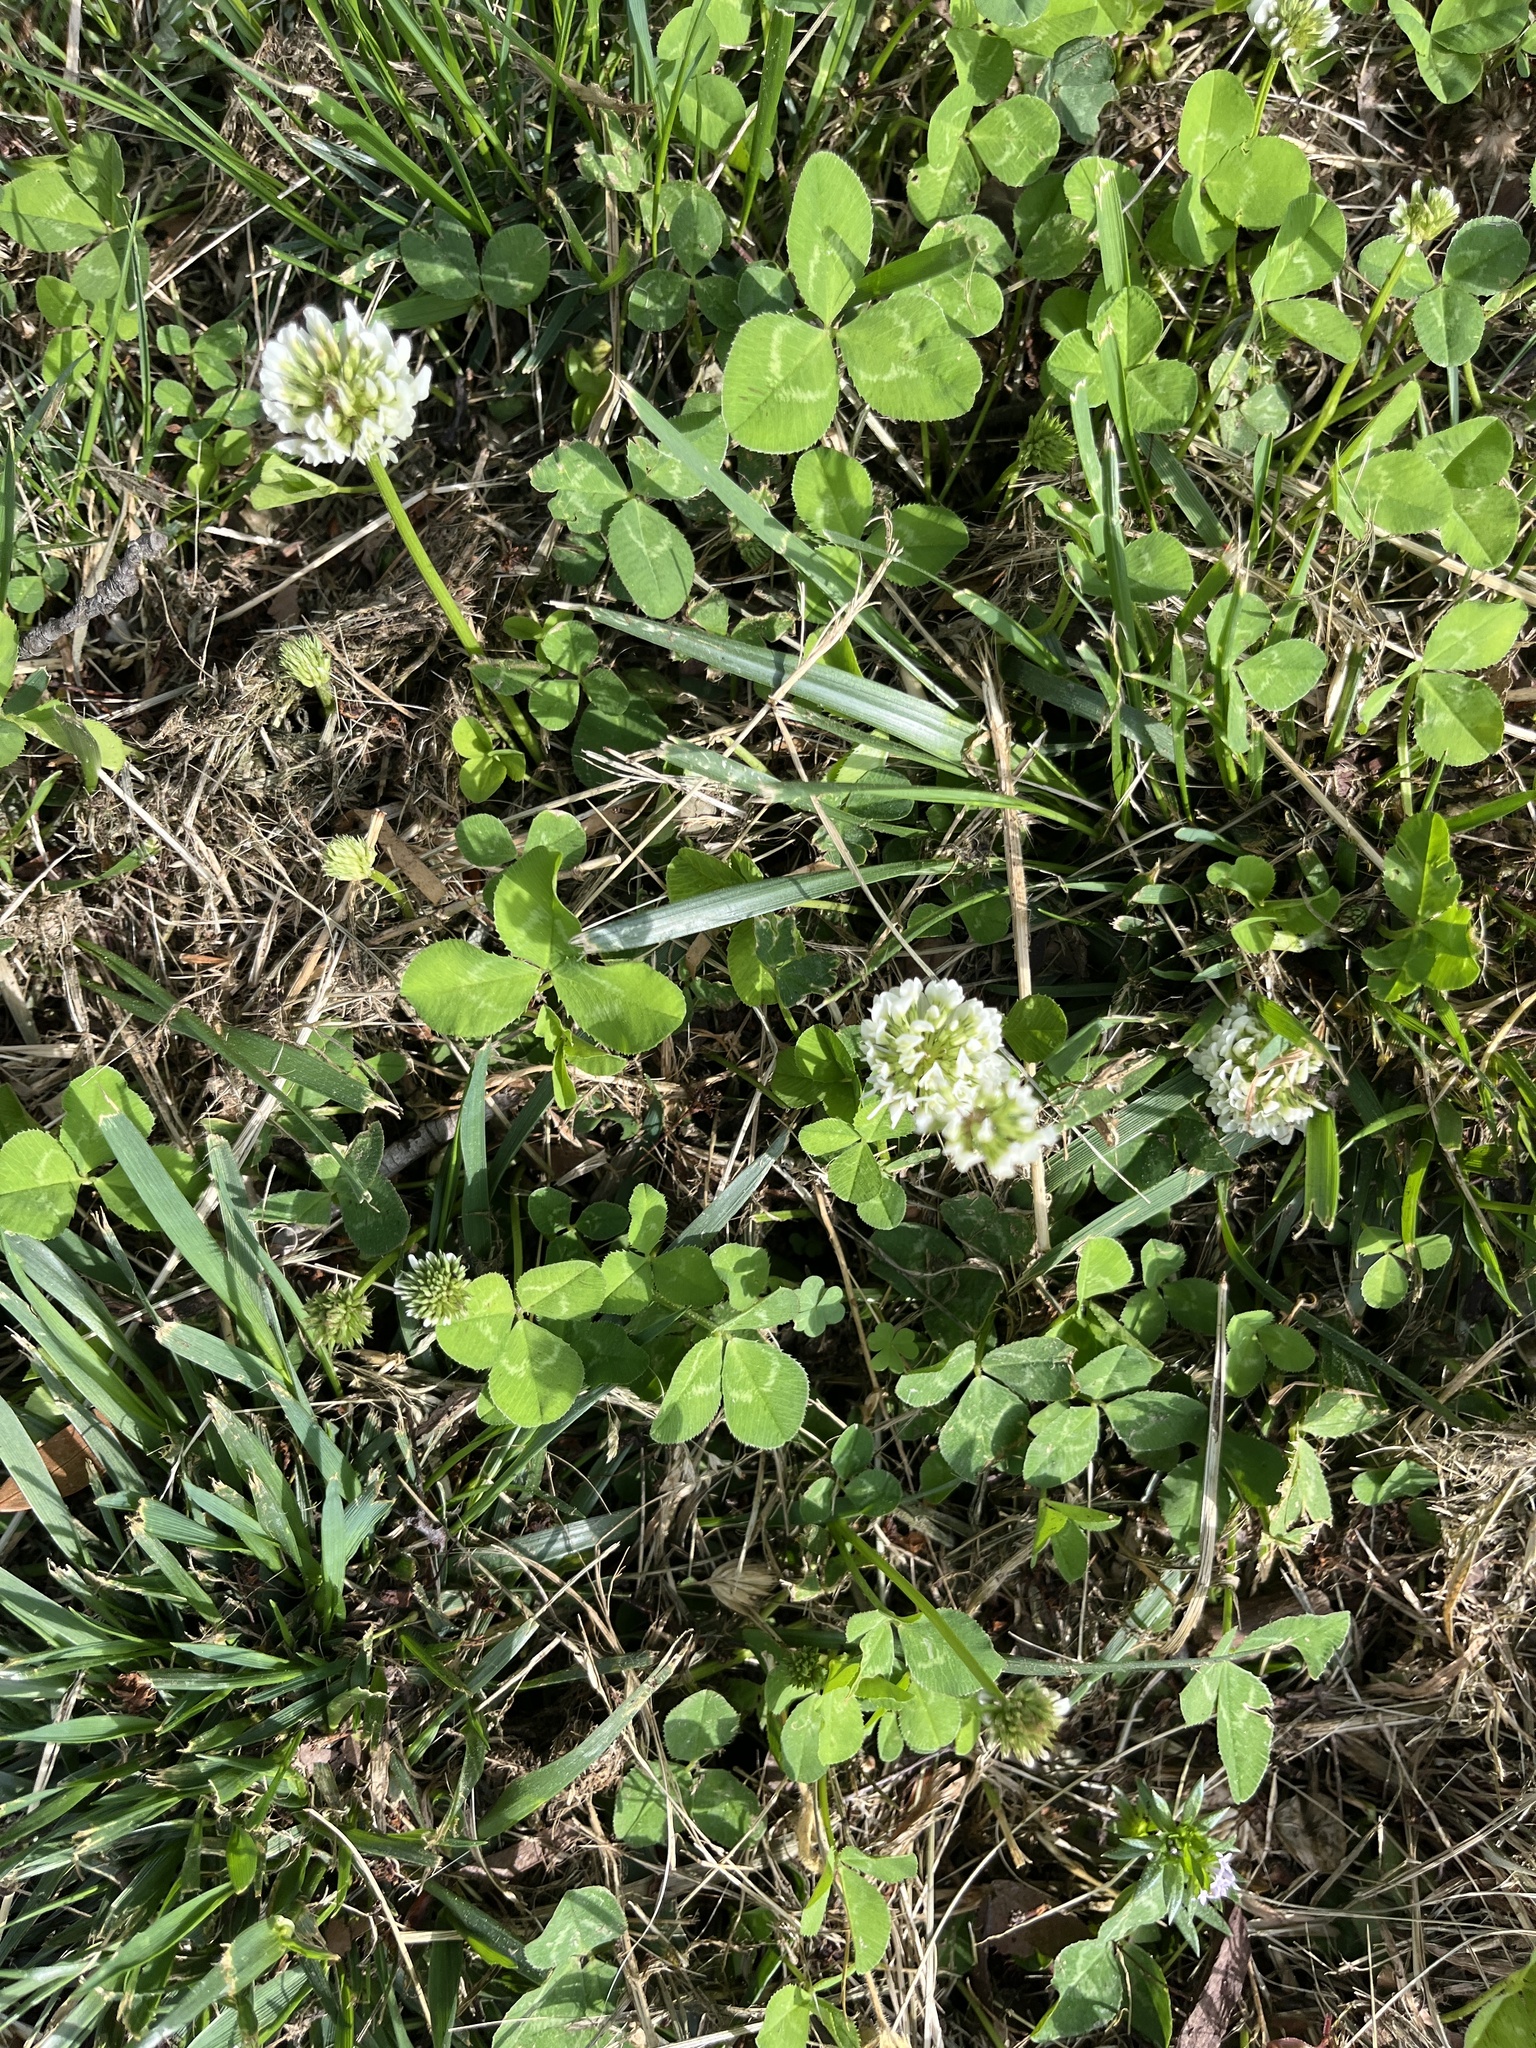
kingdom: Plantae
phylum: Tracheophyta
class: Magnoliopsida
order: Fabales
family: Fabaceae
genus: Trifolium
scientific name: Trifolium repens
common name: White clover
